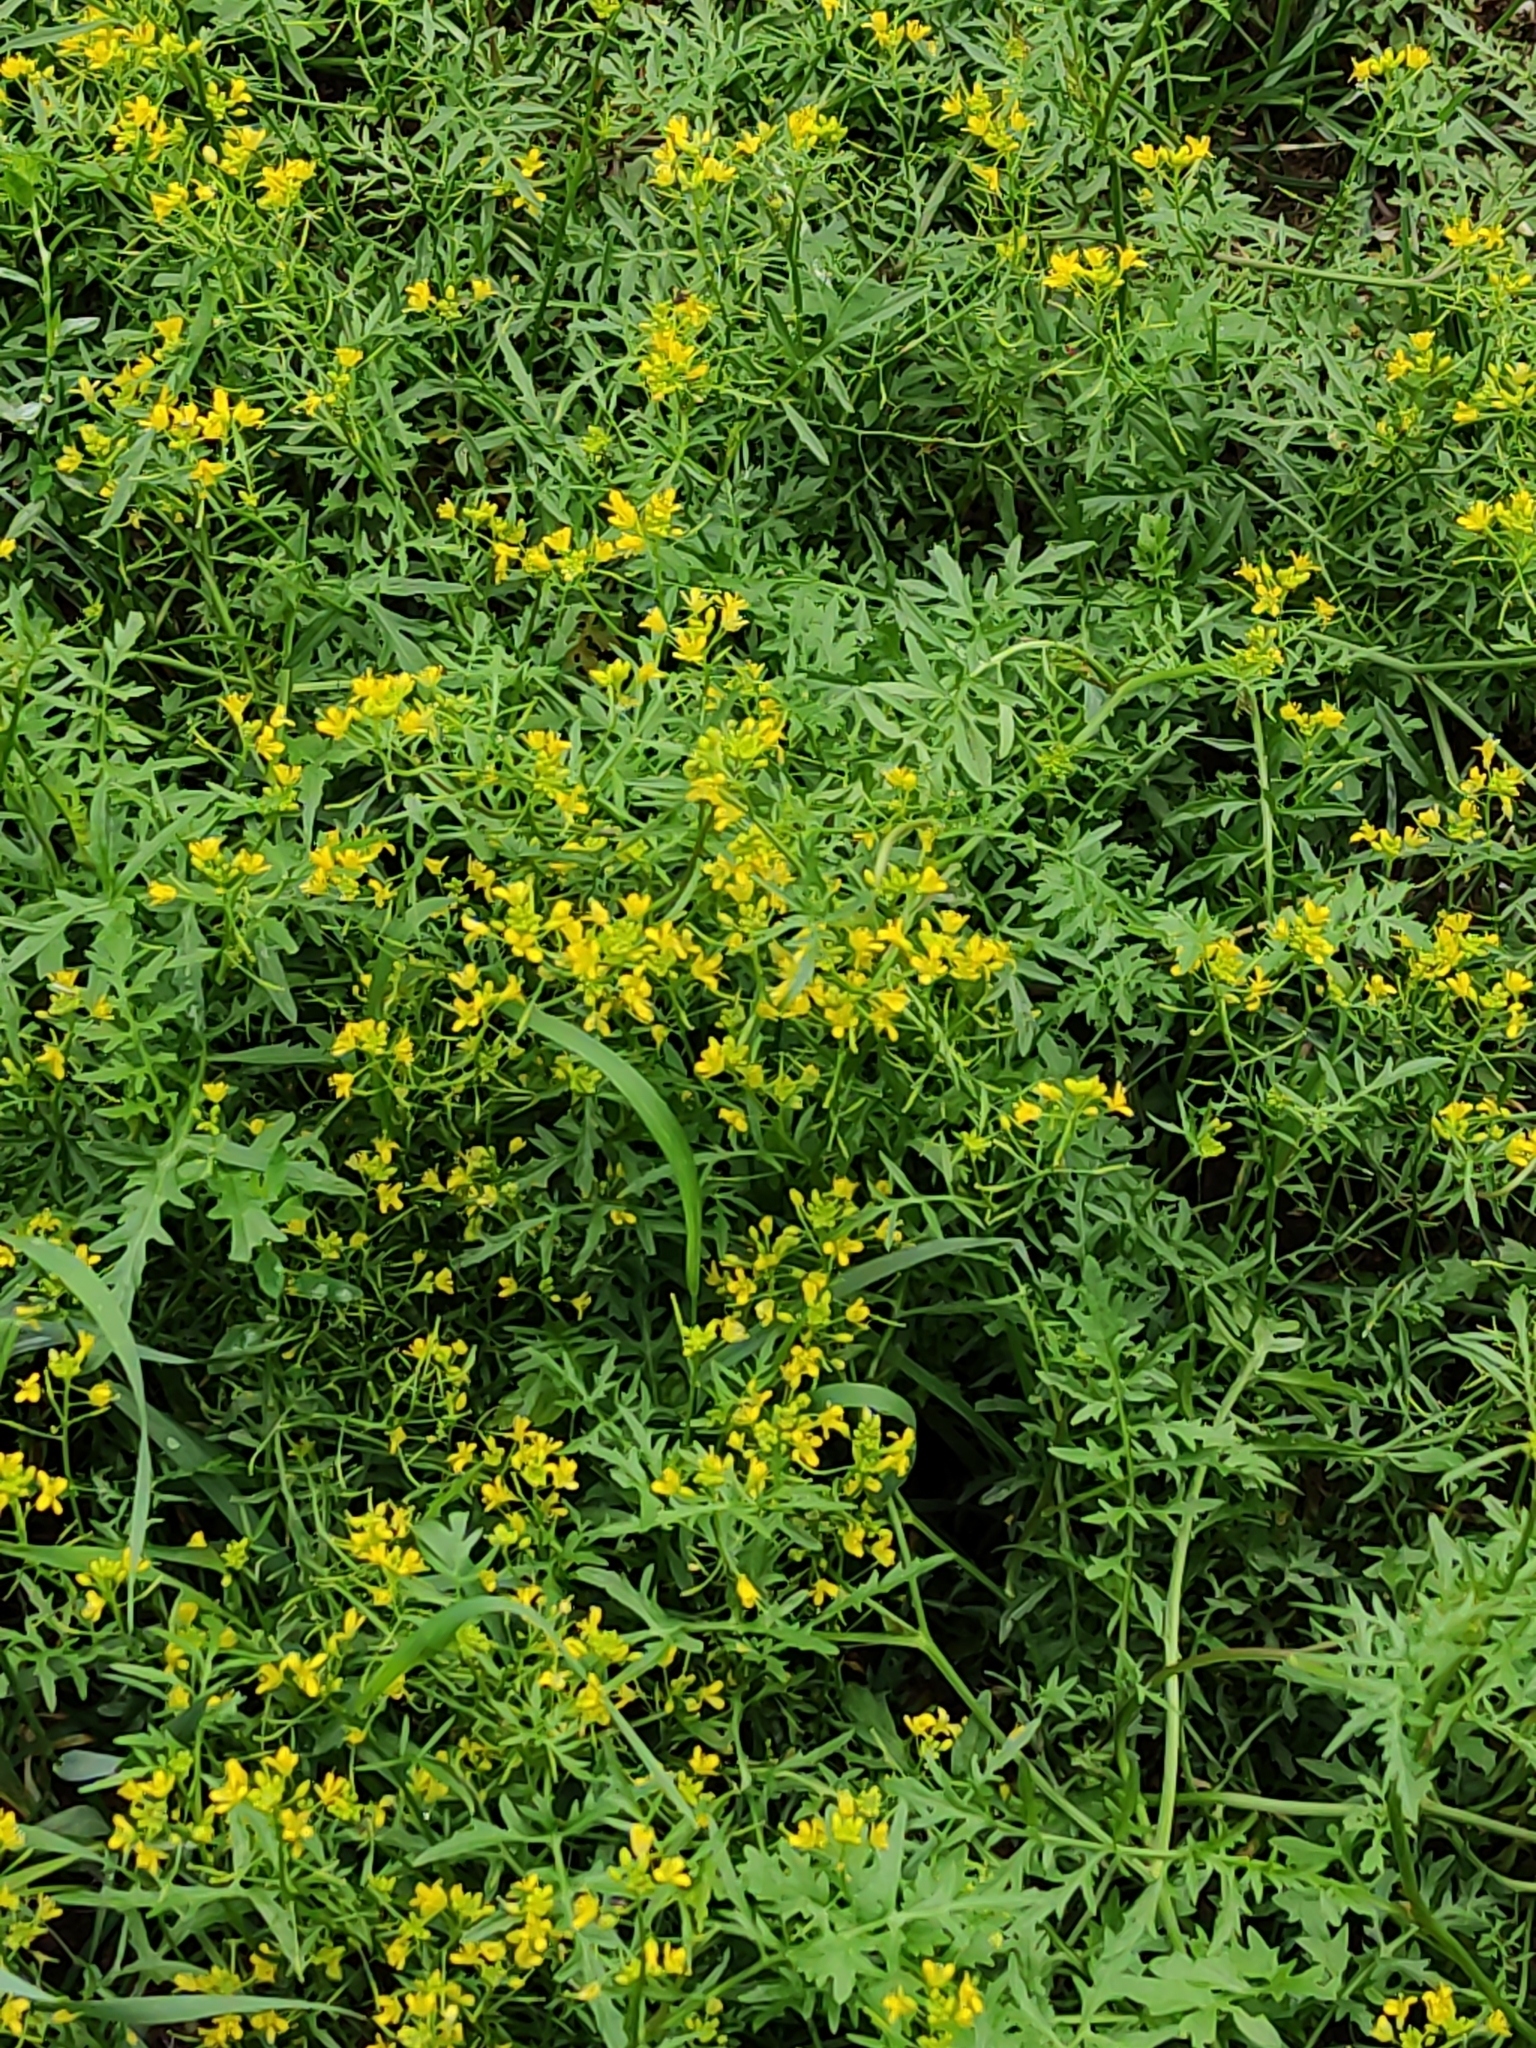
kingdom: Plantae
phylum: Tracheophyta
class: Magnoliopsida
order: Brassicales
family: Brassicaceae
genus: Rorippa
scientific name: Rorippa sylvestris
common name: Creeping yellowcress
